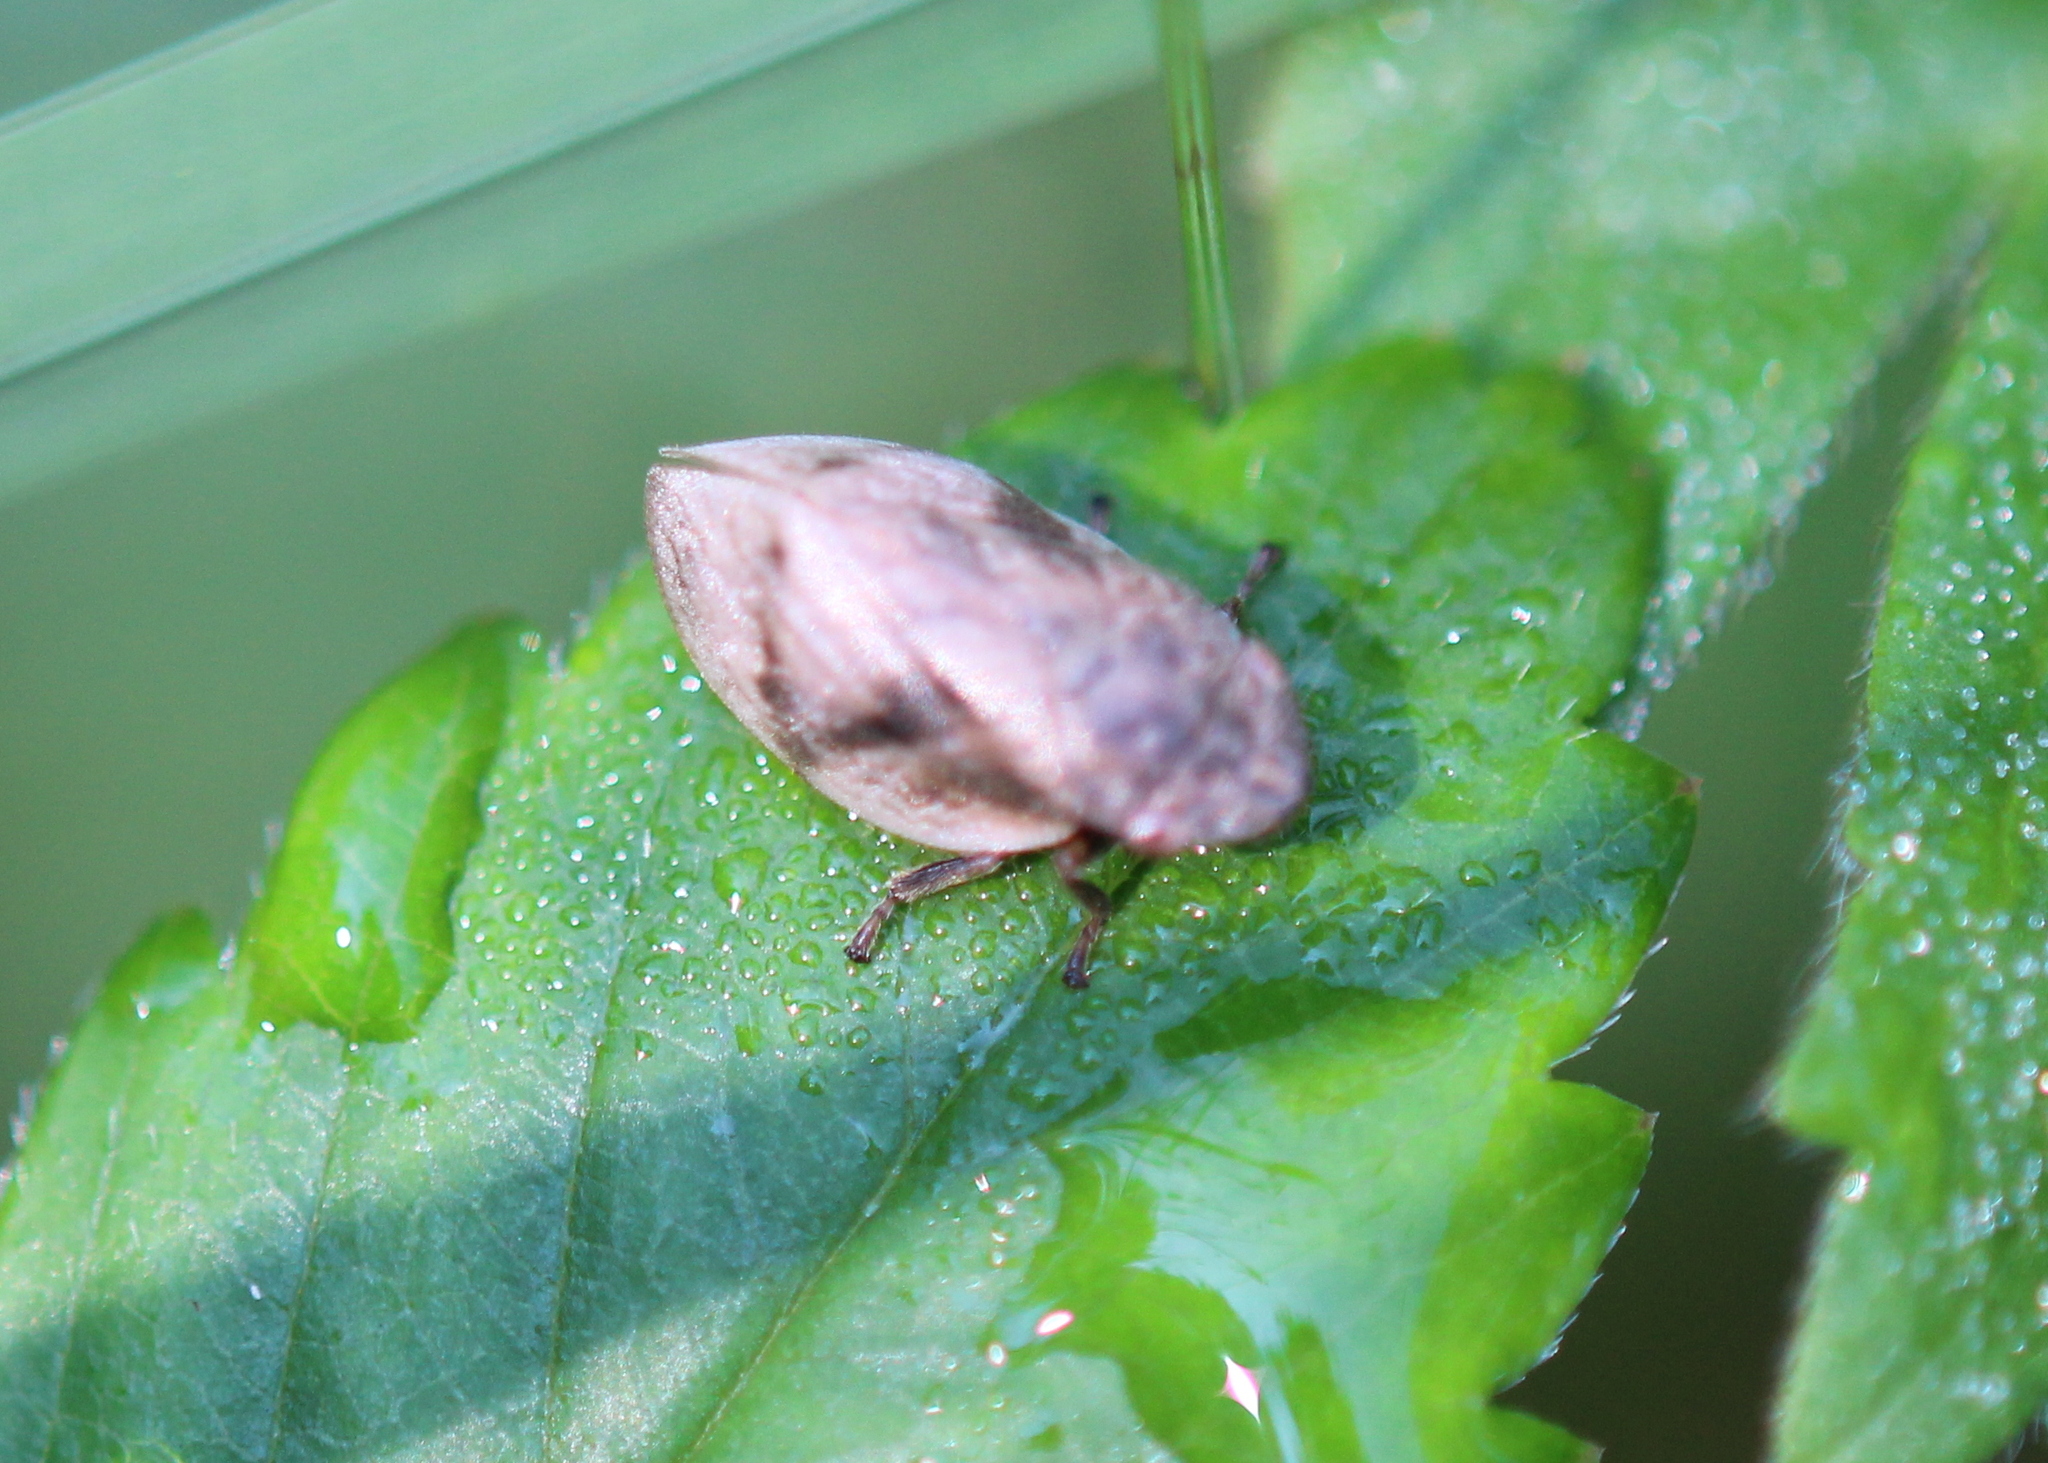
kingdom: Animalia
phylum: Arthropoda
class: Insecta
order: Hemiptera
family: Aphrophoridae
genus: Lepyronia
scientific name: Lepyronia coleoptrata
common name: Leafhopper
